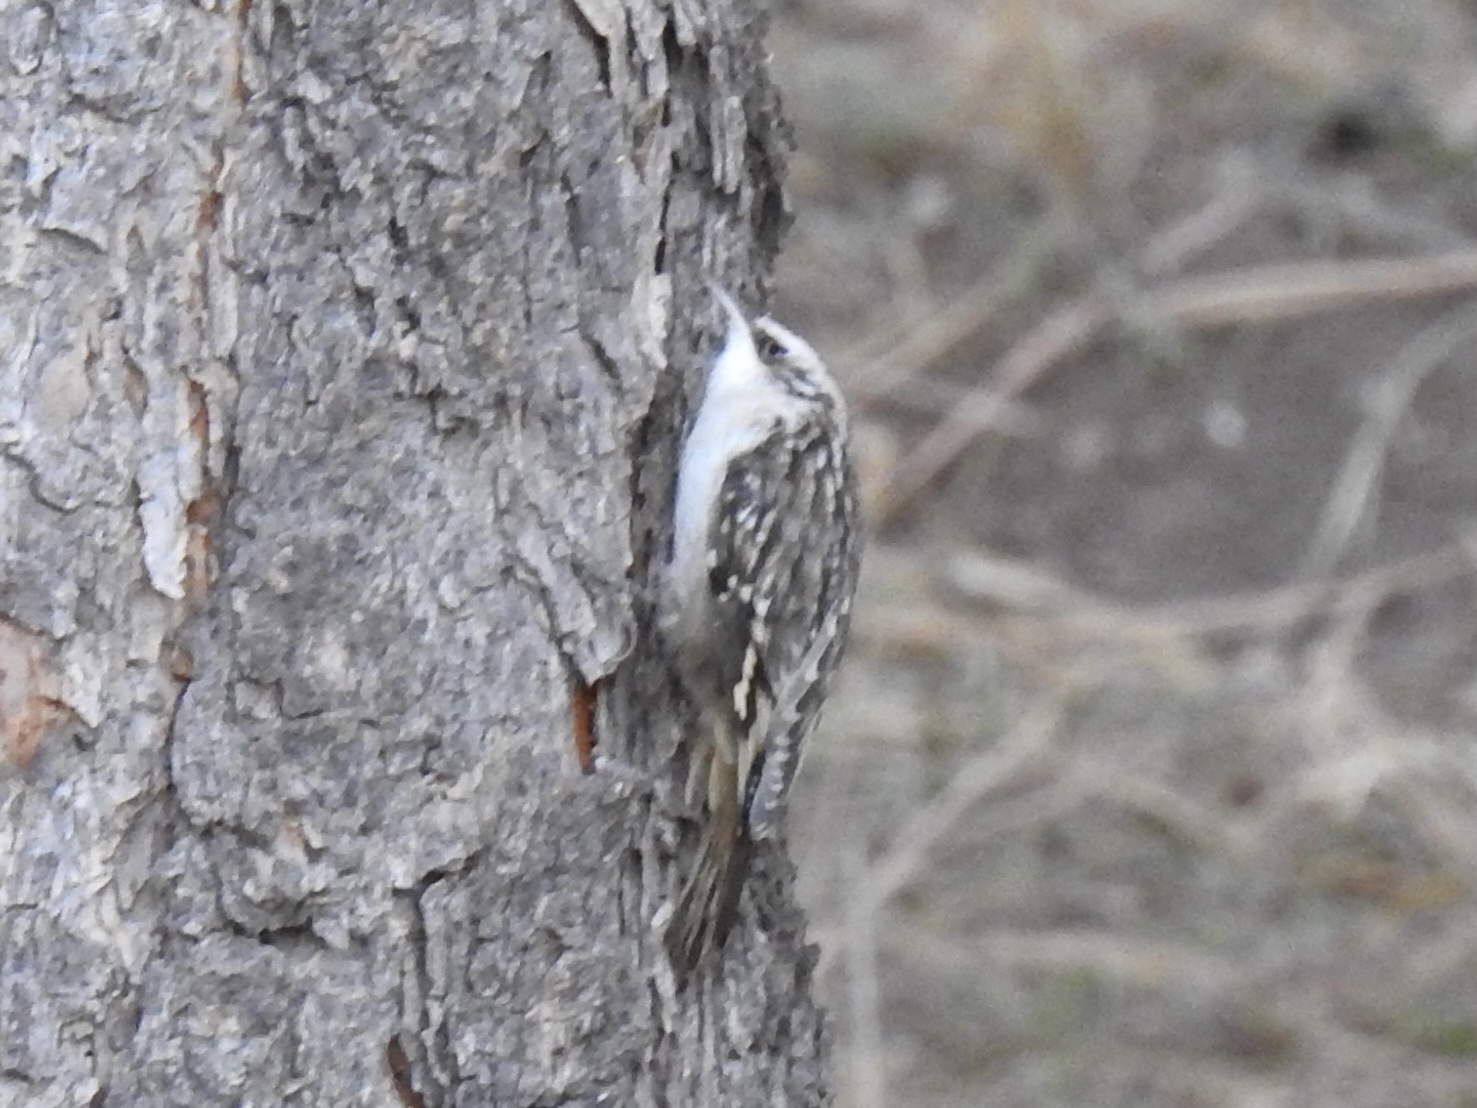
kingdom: Animalia
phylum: Chordata
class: Aves
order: Passeriformes
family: Certhiidae
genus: Certhia
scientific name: Certhia americana
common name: Brown creeper
